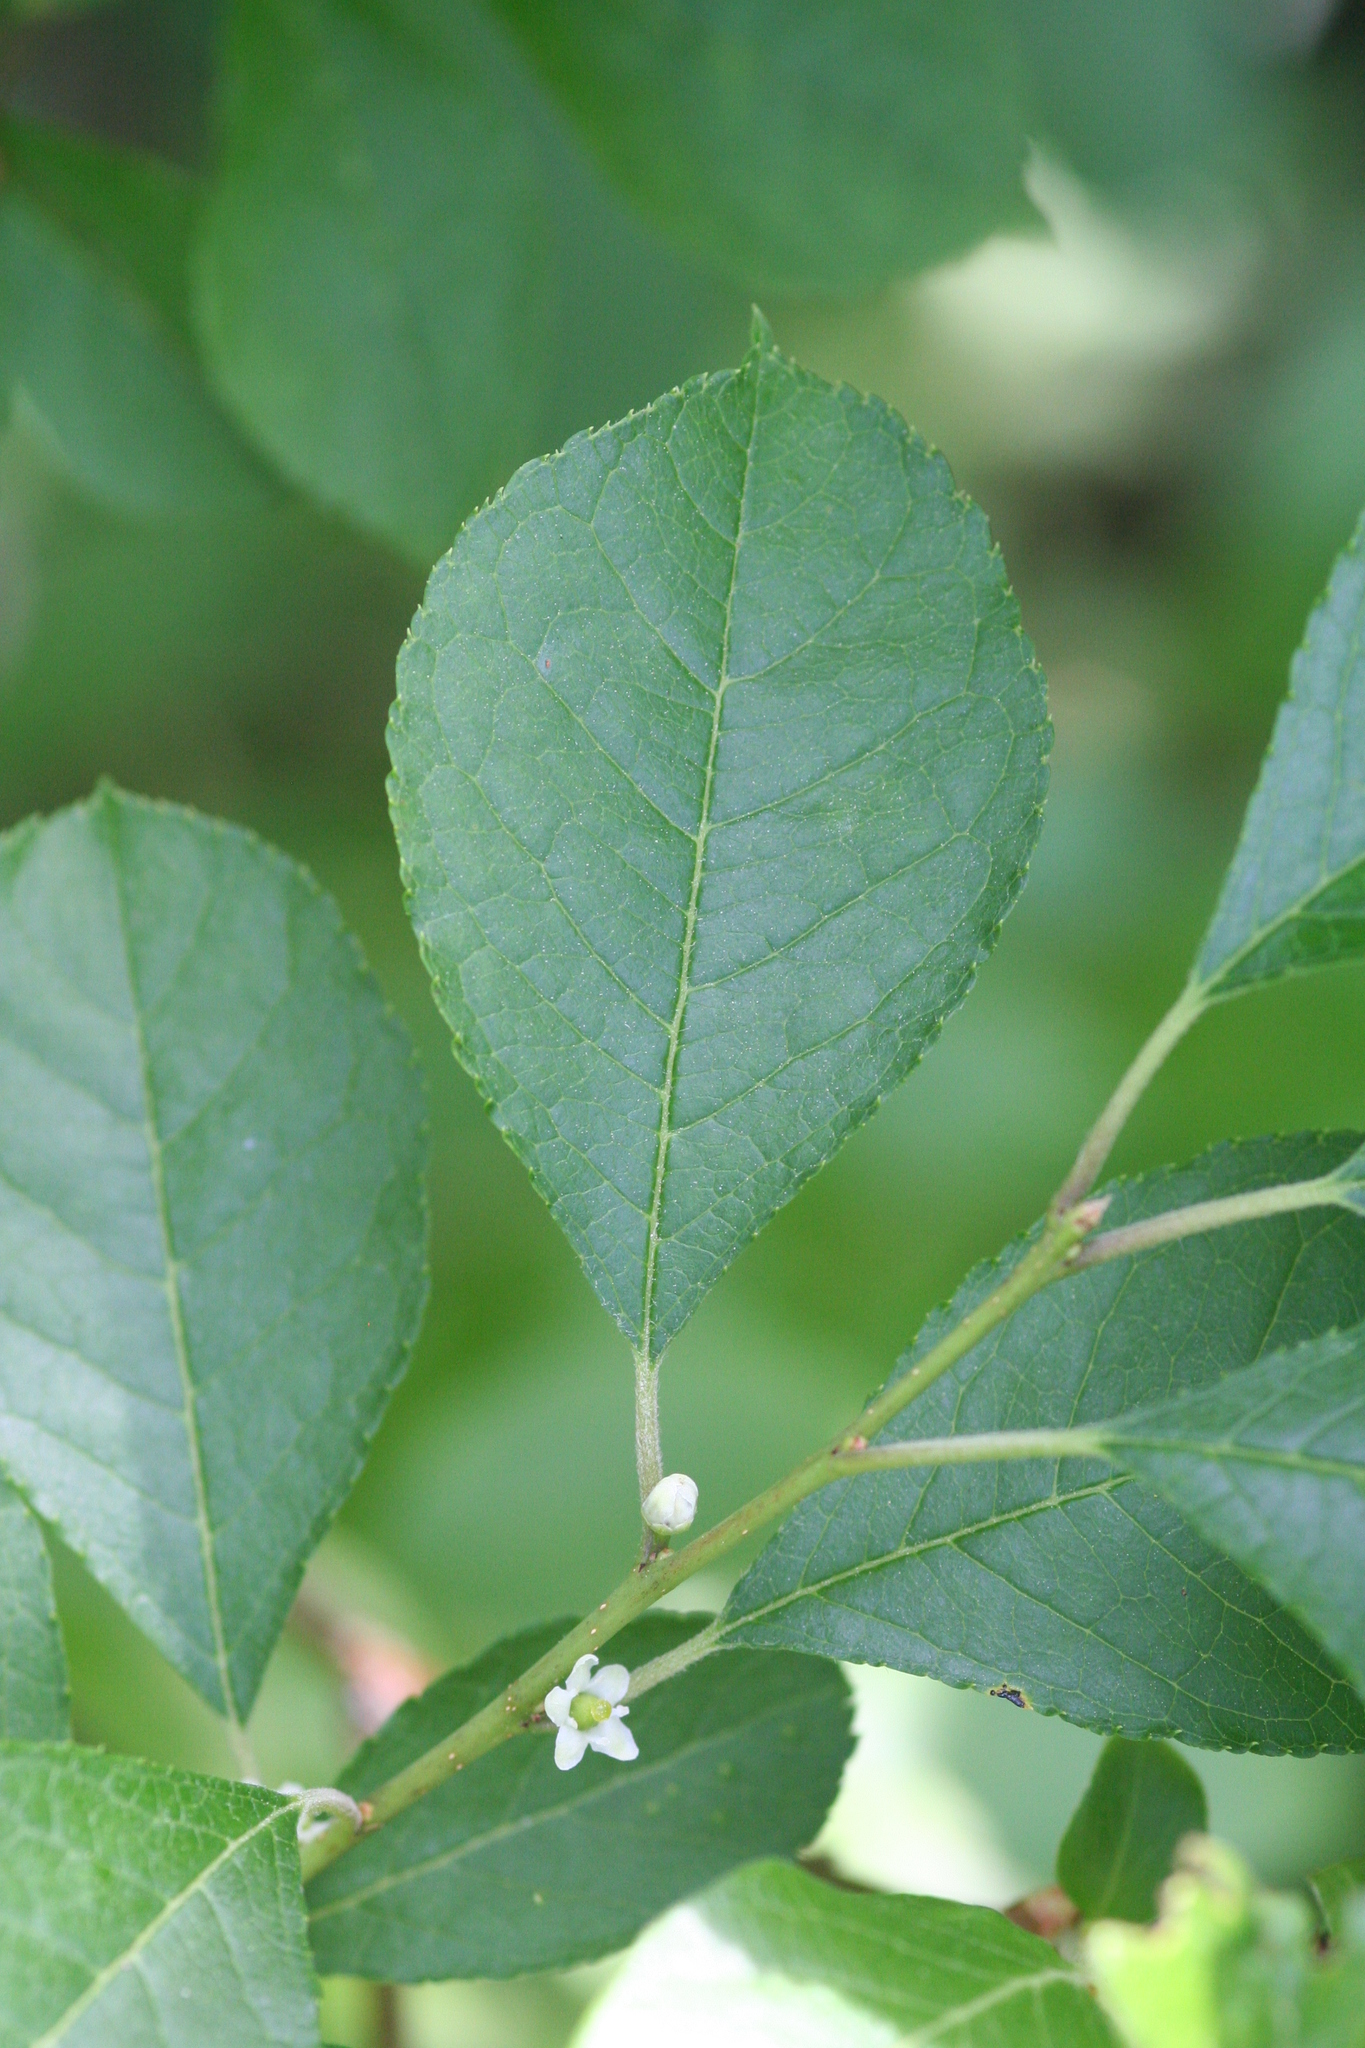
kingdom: Plantae
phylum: Tracheophyta
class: Magnoliopsida
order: Aquifoliales
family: Aquifoliaceae
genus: Ilex
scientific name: Ilex verticillata
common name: Virginia winterberry
